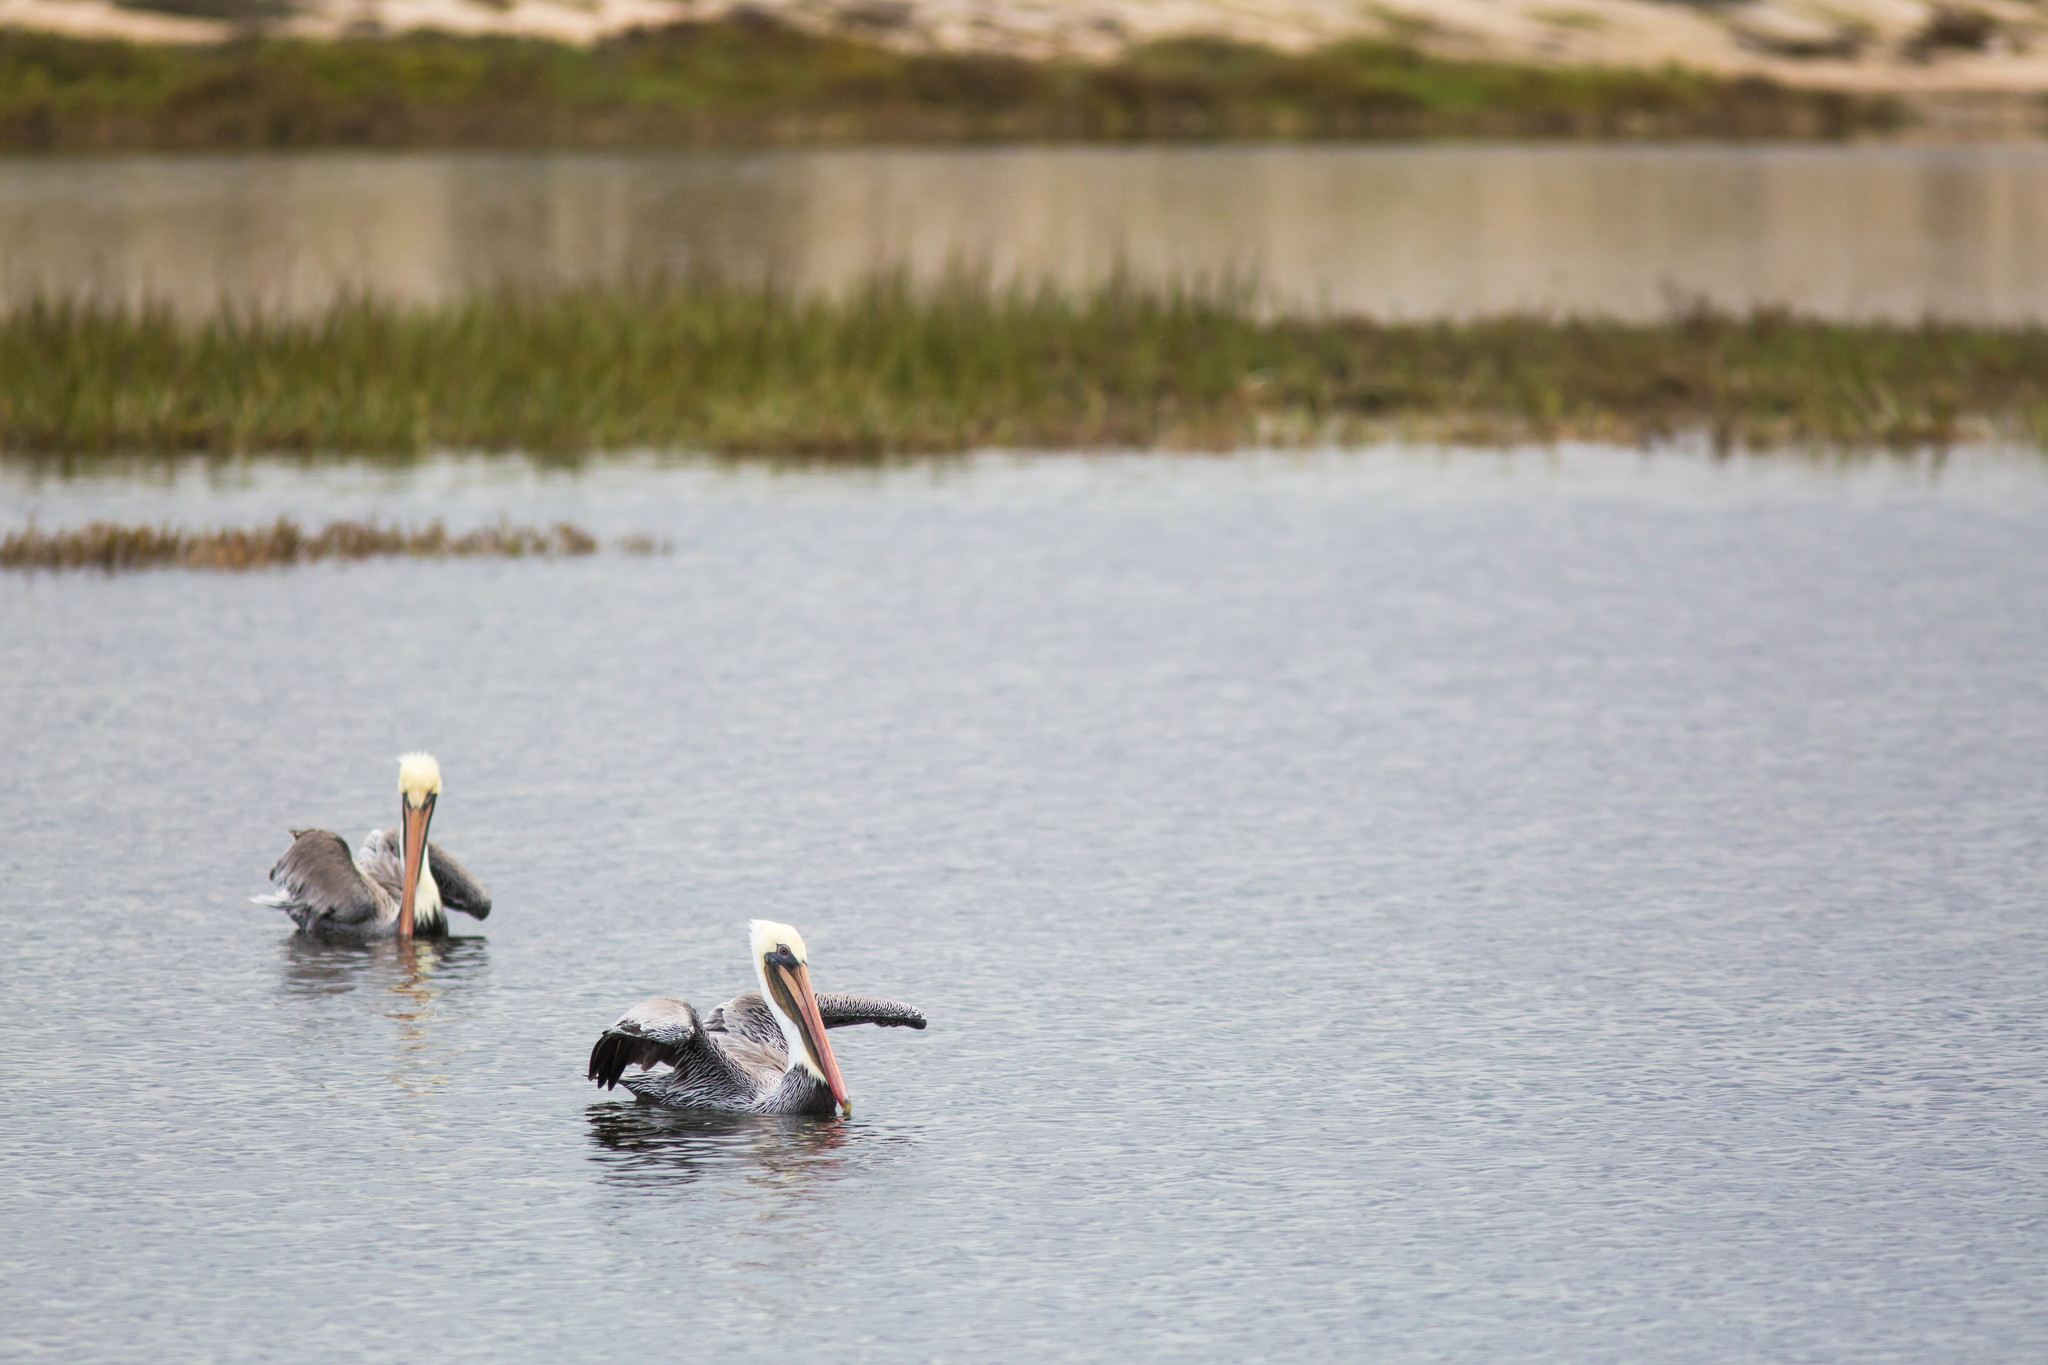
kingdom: Animalia
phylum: Chordata
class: Aves
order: Pelecaniformes
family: Pelecanidae
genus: Pelecanus
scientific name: Pelecanus occidentalis
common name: Brown pelican
